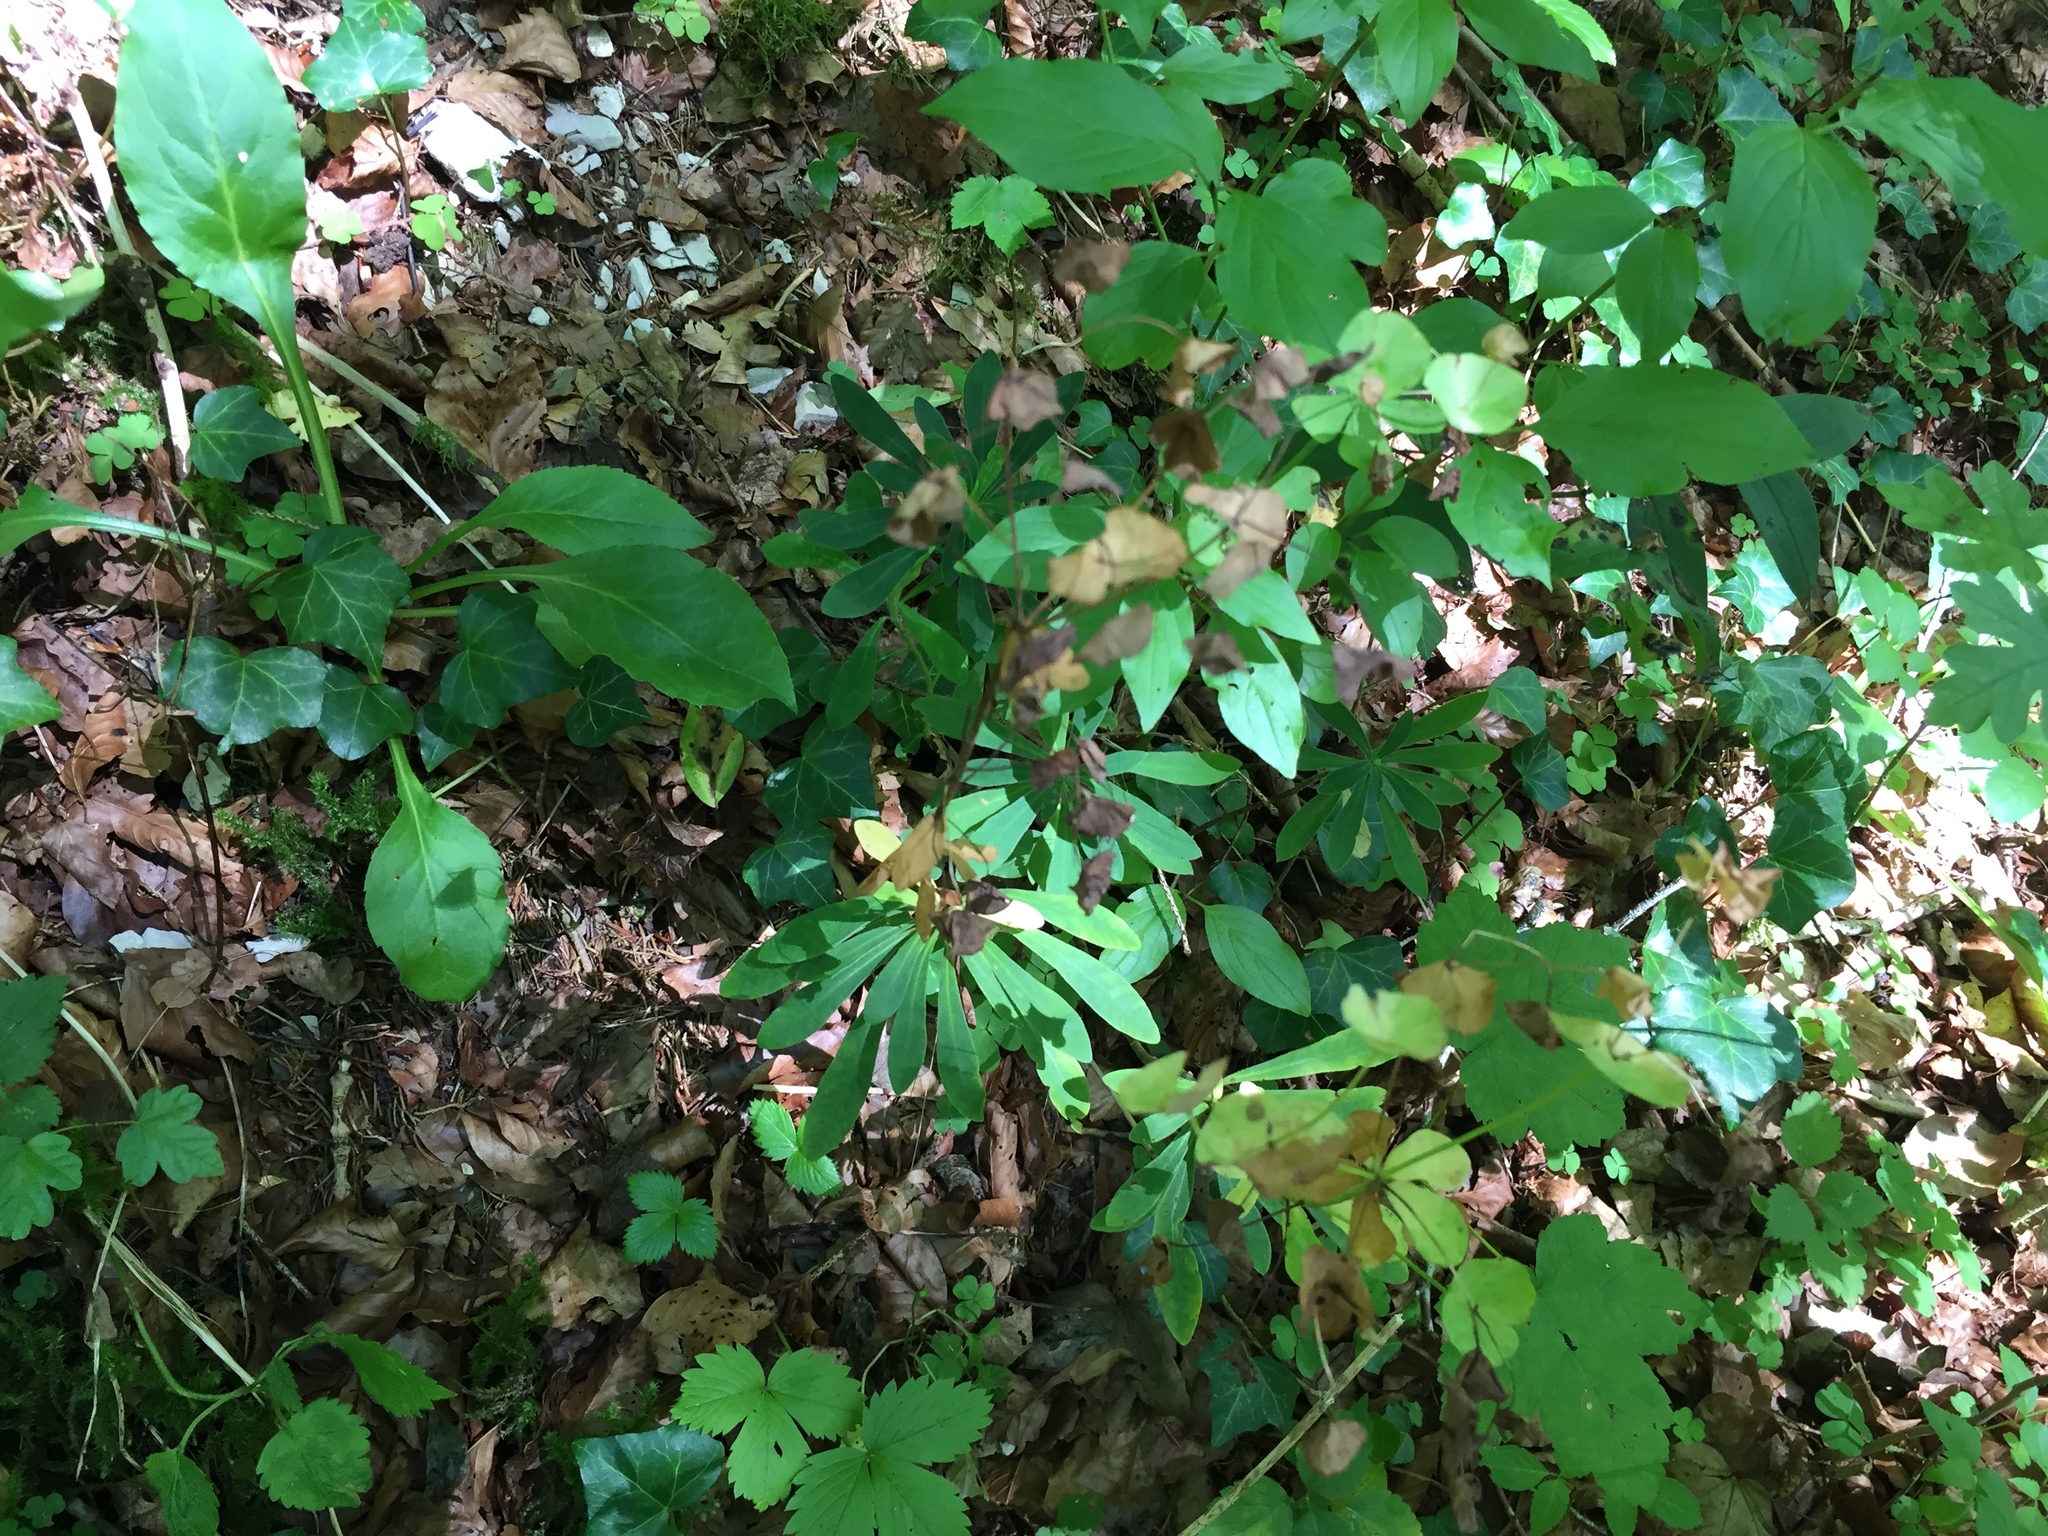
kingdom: Plantae
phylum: Tracheophyta
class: Magnoliopsida
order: Malpighiales
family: Euphorbiaceae
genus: Euphorbia
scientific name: Euphorbia amygdaloides
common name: Wood spurge
